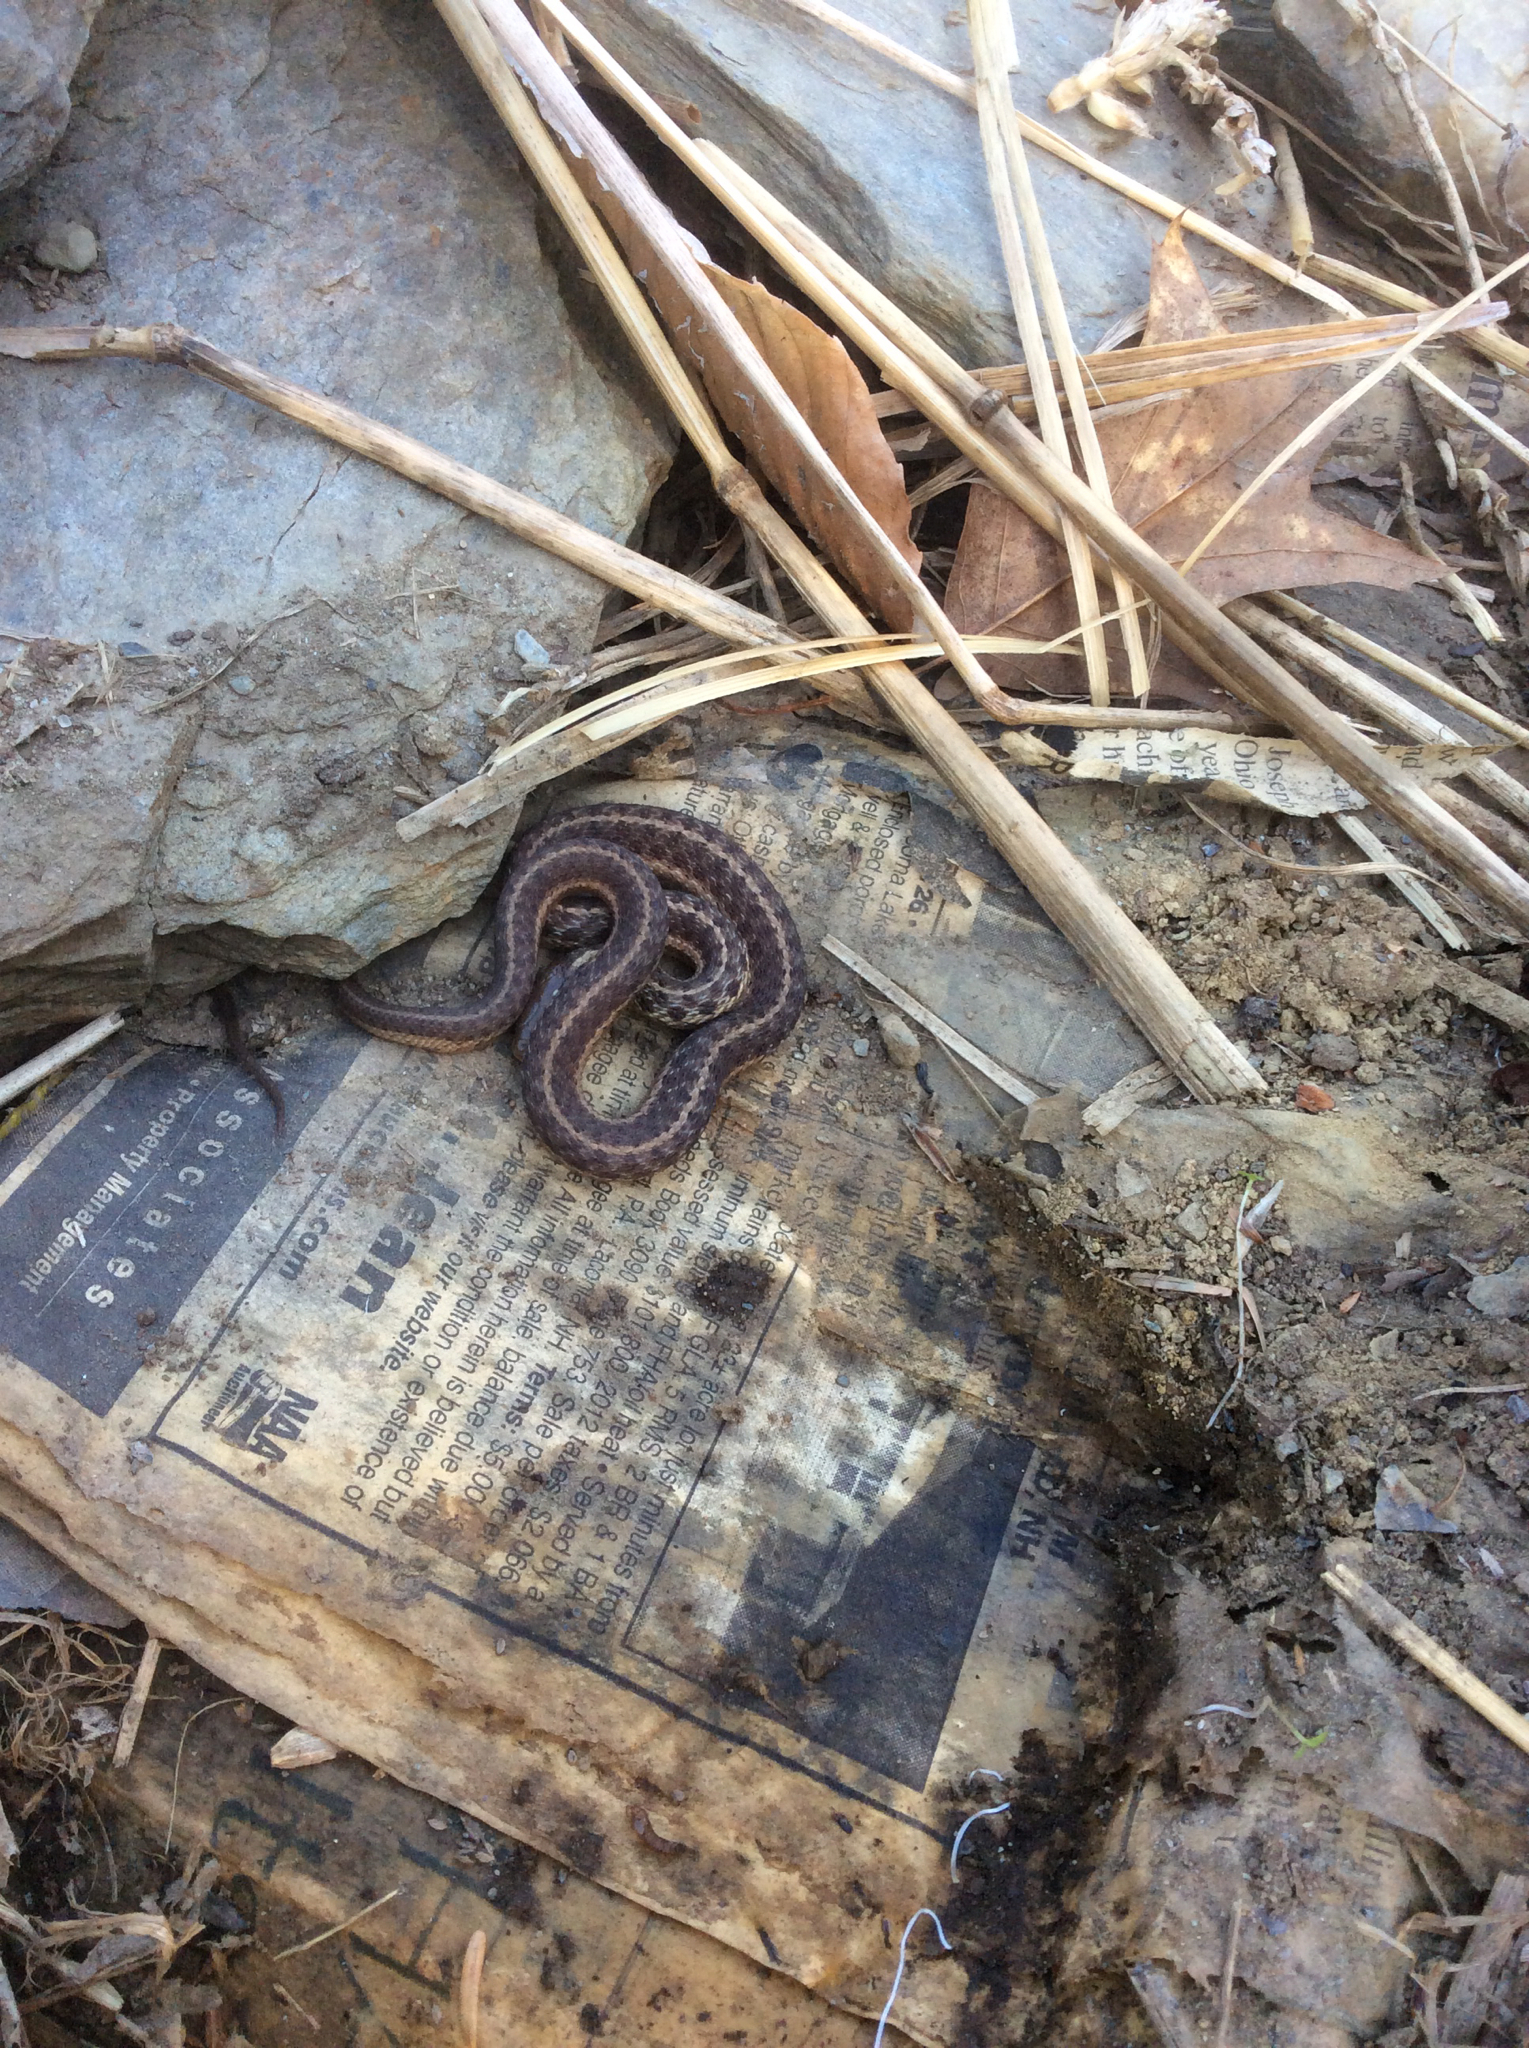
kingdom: Animalia
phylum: Chordata
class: Squamata
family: Colubridae
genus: Thamnophis
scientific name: Thamnophis sirtalis
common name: Common garter snake
